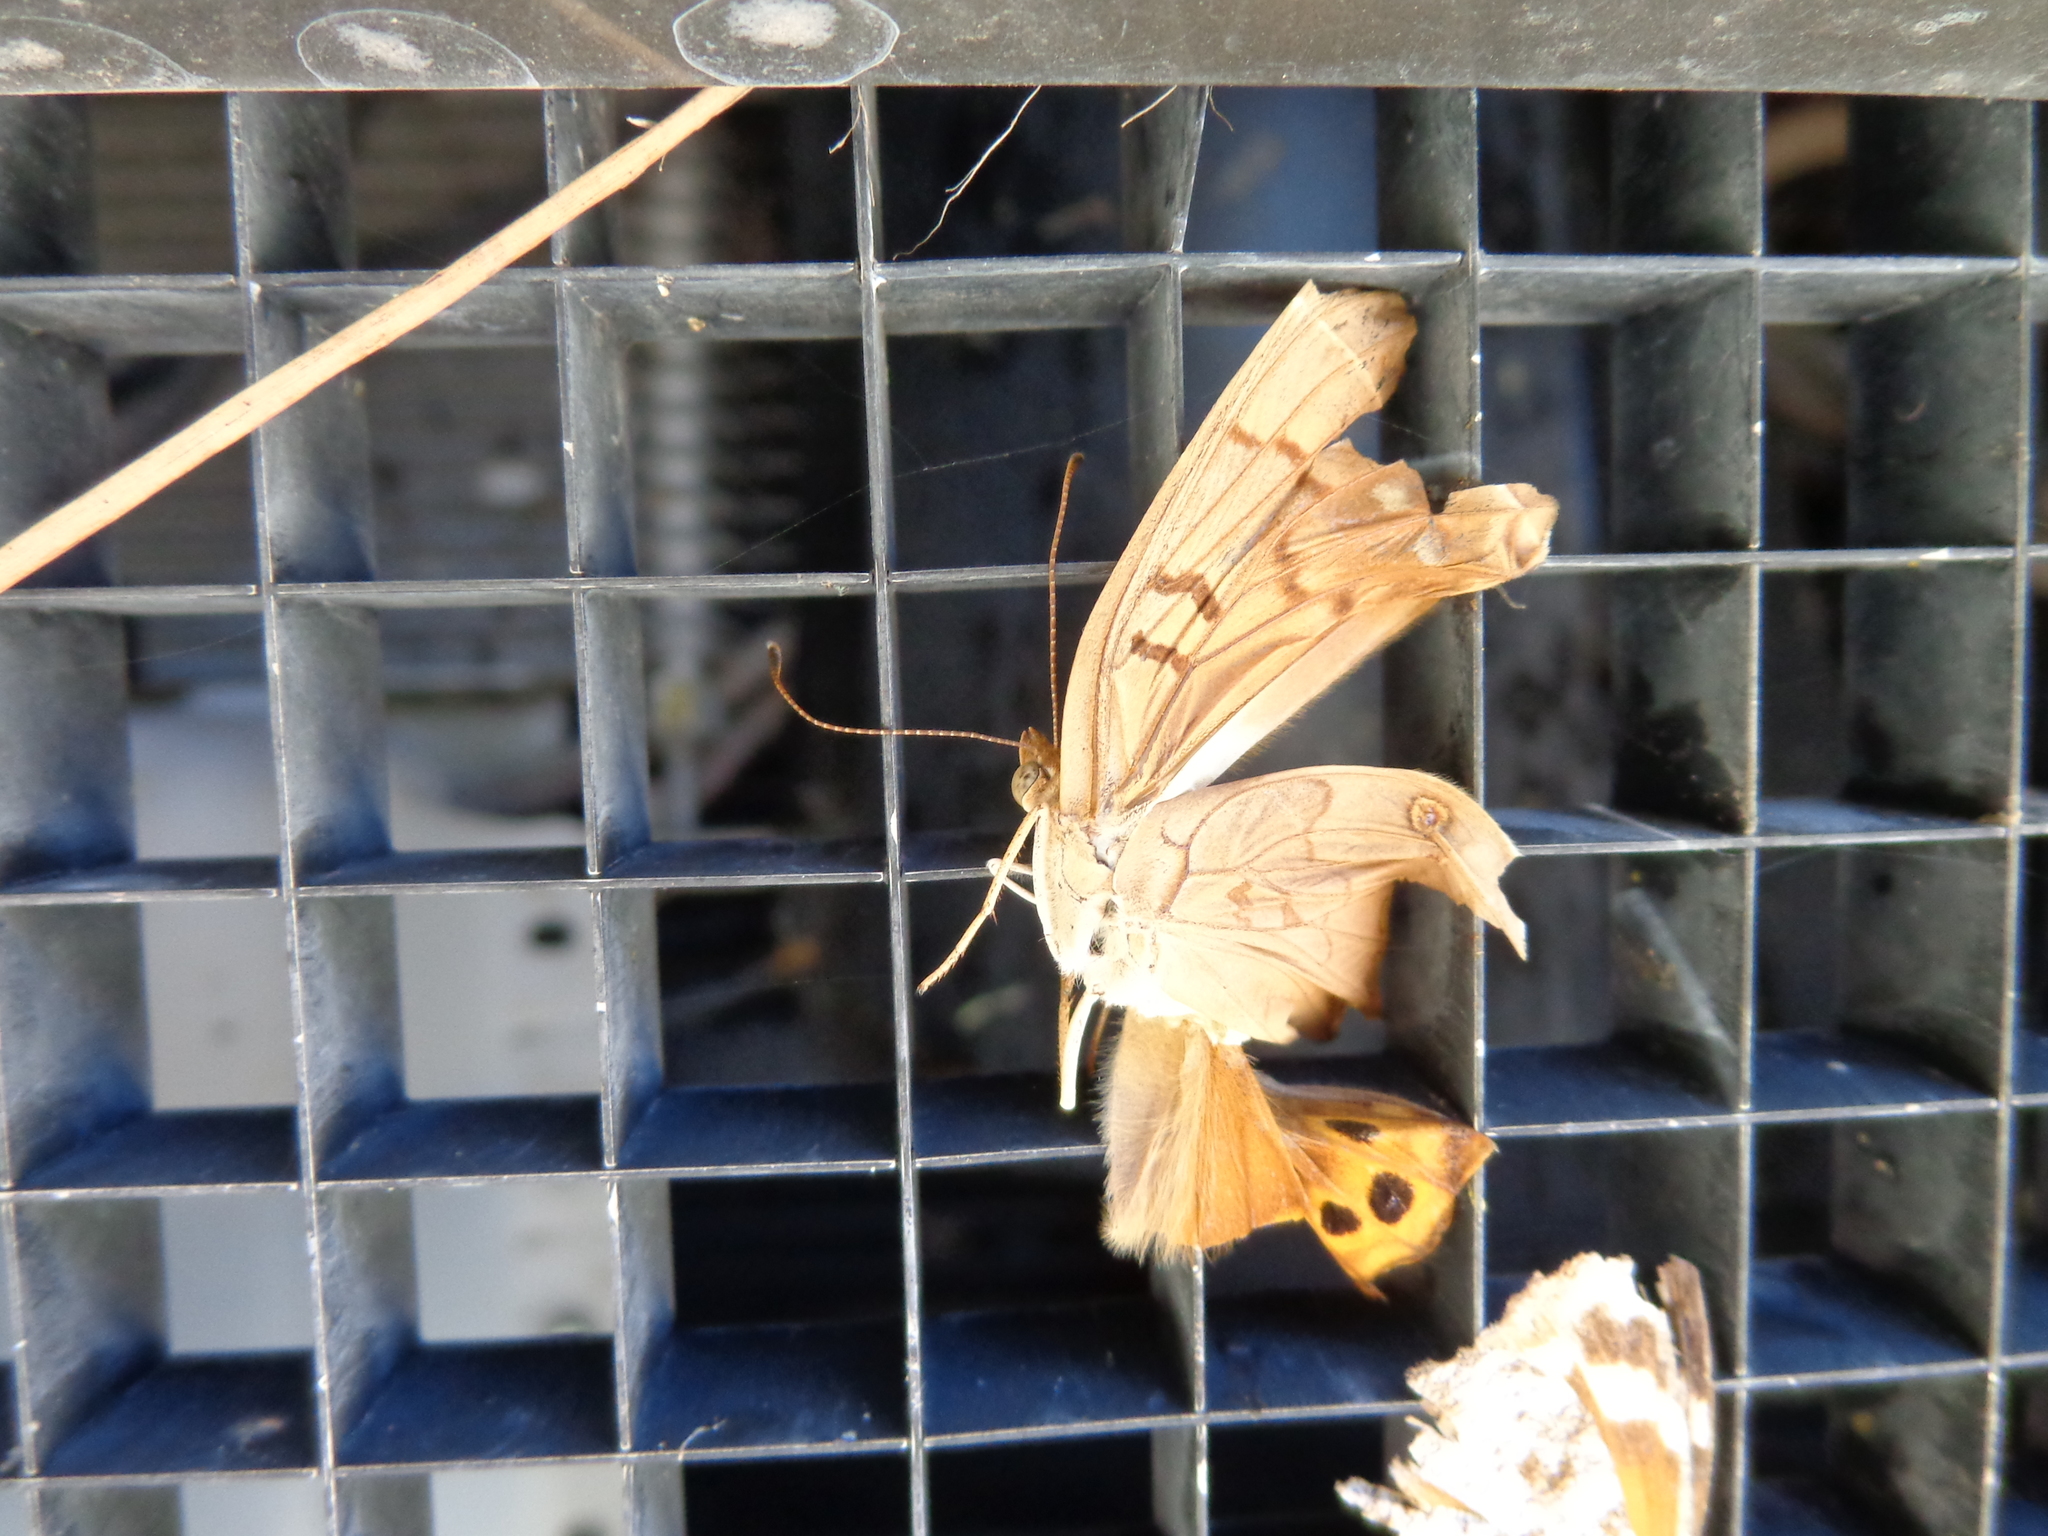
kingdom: Animalia
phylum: Arthropoda
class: Insecta
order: Lepidoptera
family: Nymphalidae
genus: Asterocampa
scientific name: Asterocampa clyton
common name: Tawny emperor
